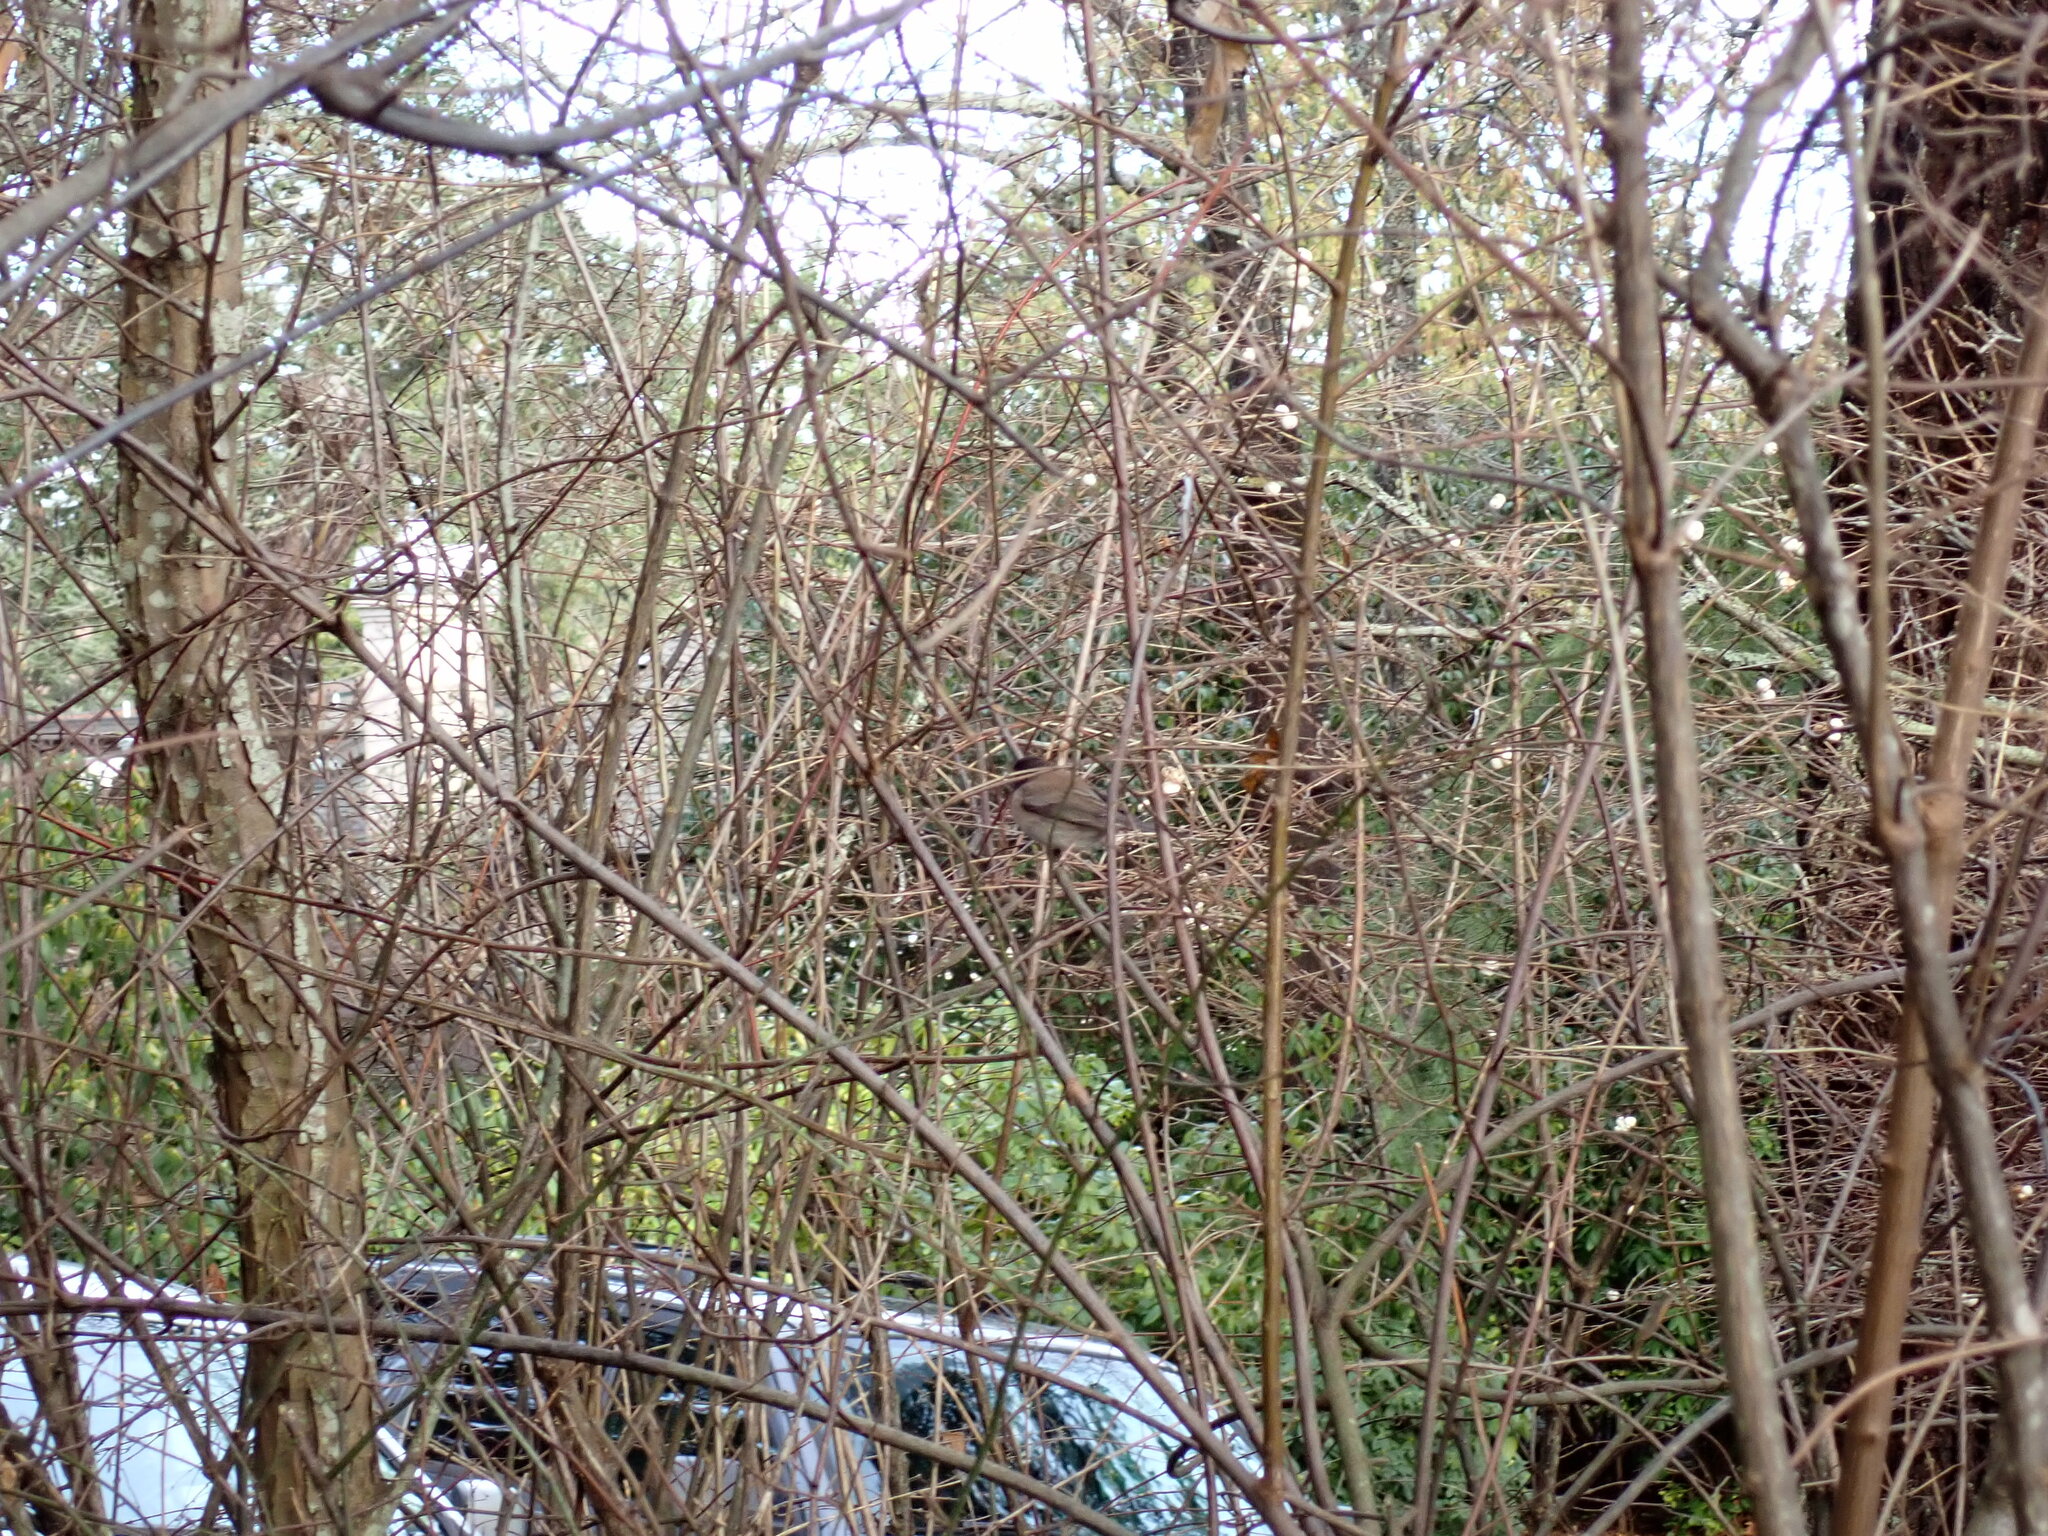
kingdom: Animalia
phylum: Chordata
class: Aves
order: Passeriformes
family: Passerellidae
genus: Junco
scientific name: Junco hyemalis
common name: Dark-eyed junco
